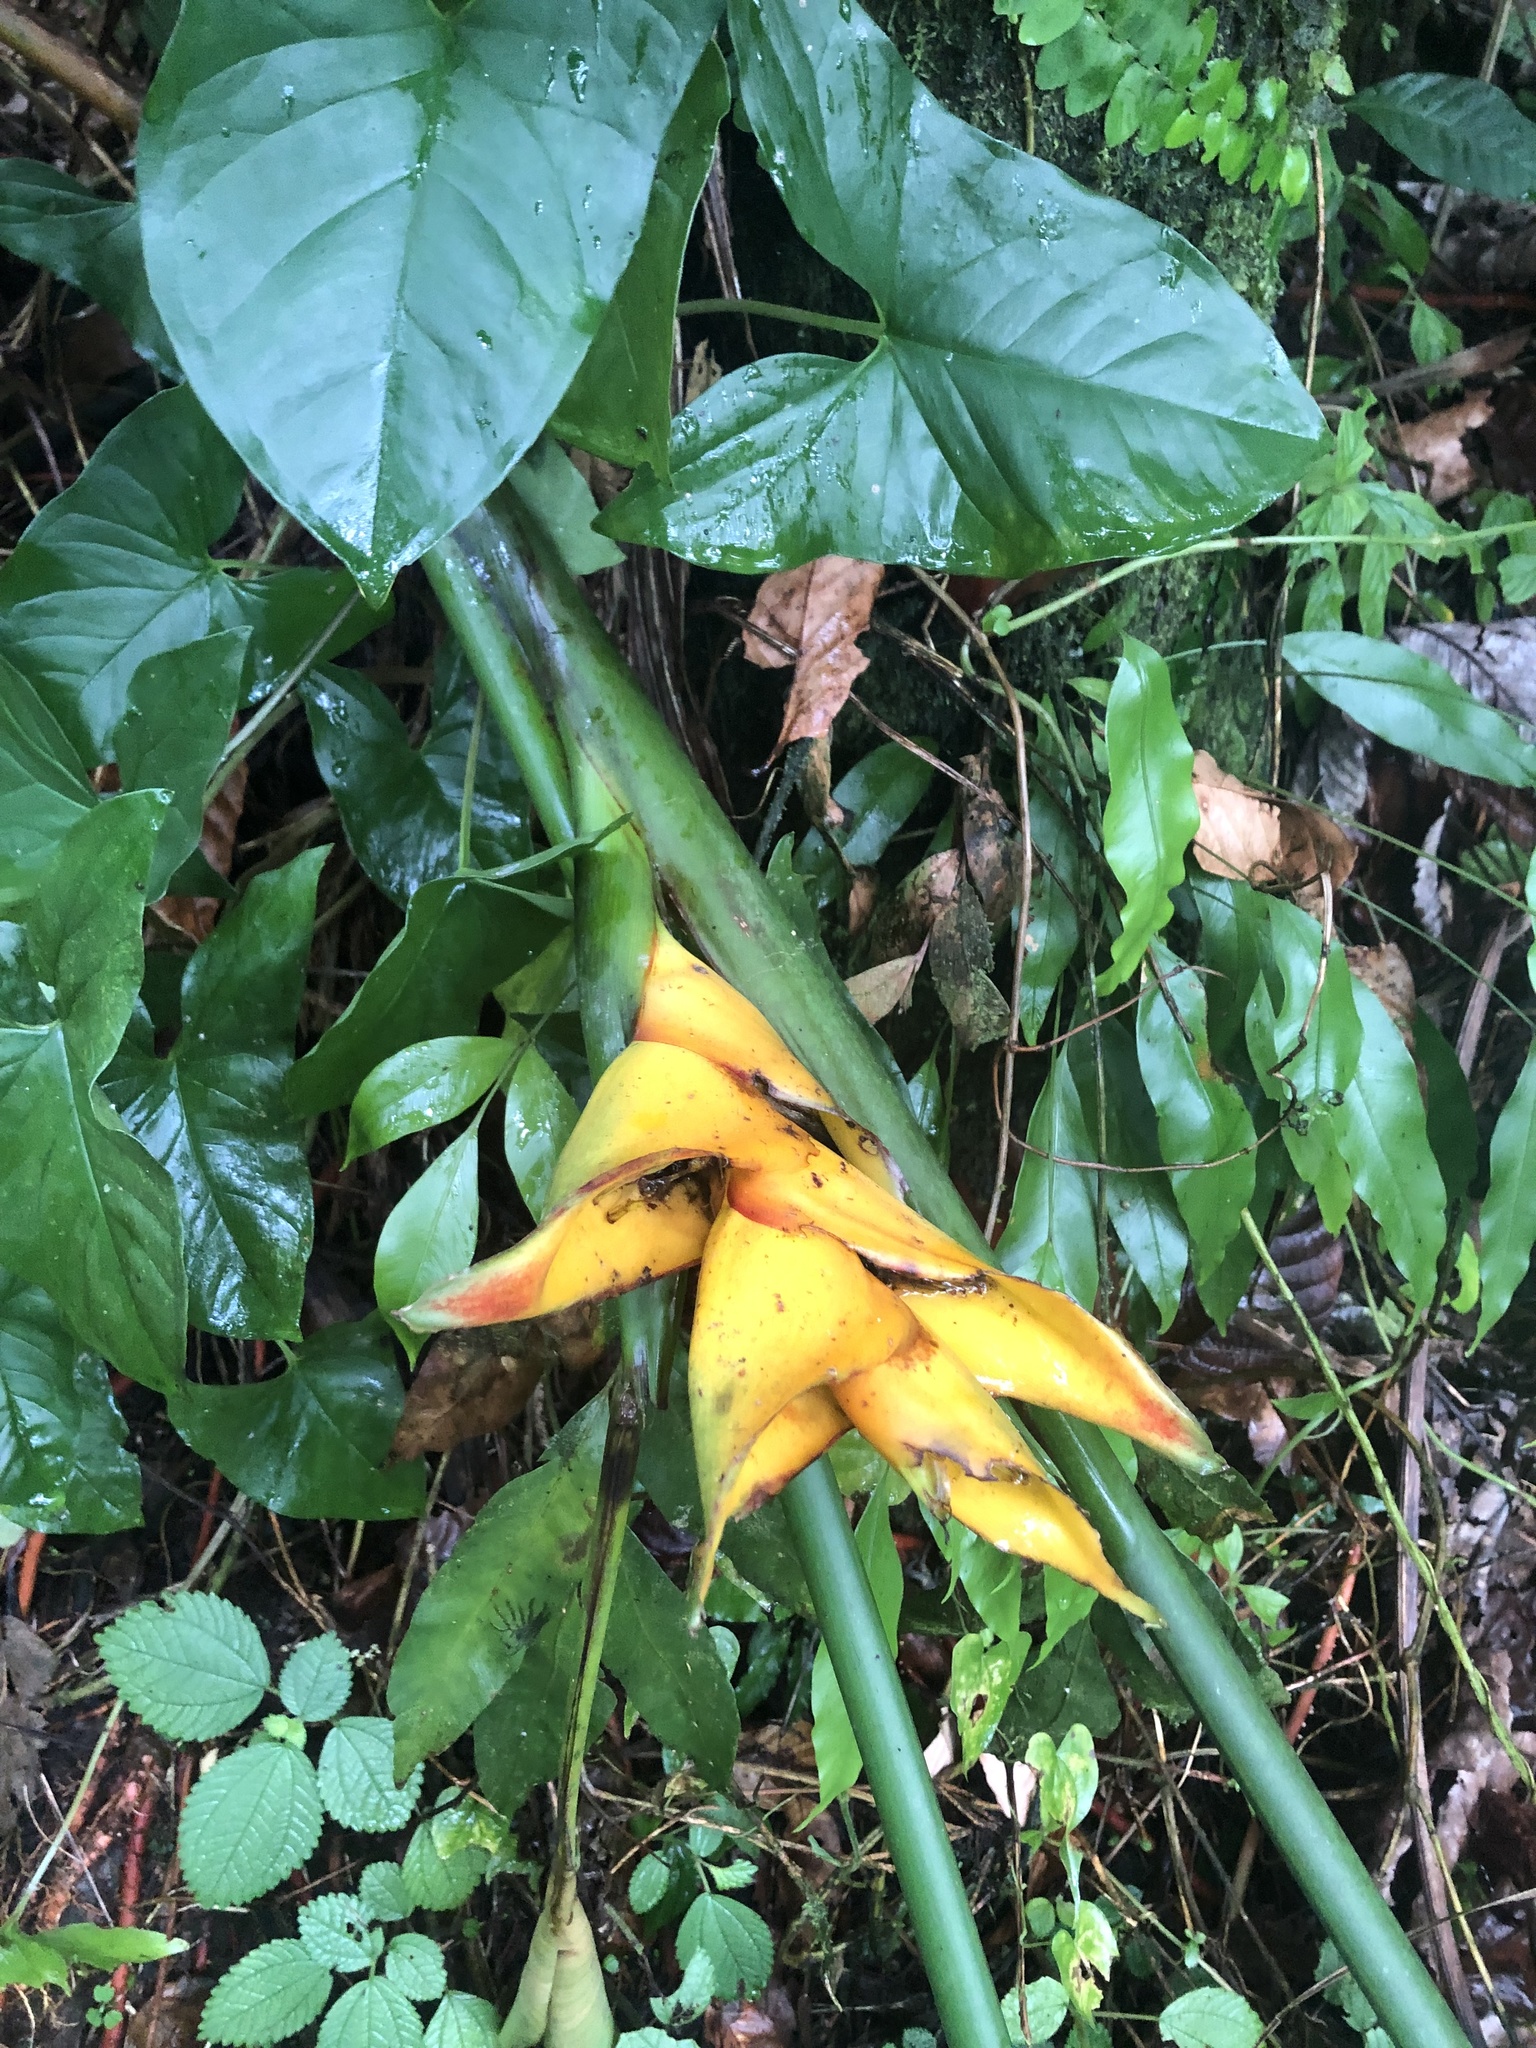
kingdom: Plantae
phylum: Tracheophyta
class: Liliopsida
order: Zingiberales
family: Heliconiaceae
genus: Heliconia
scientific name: Heliconia caribaea
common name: Wild plantain
